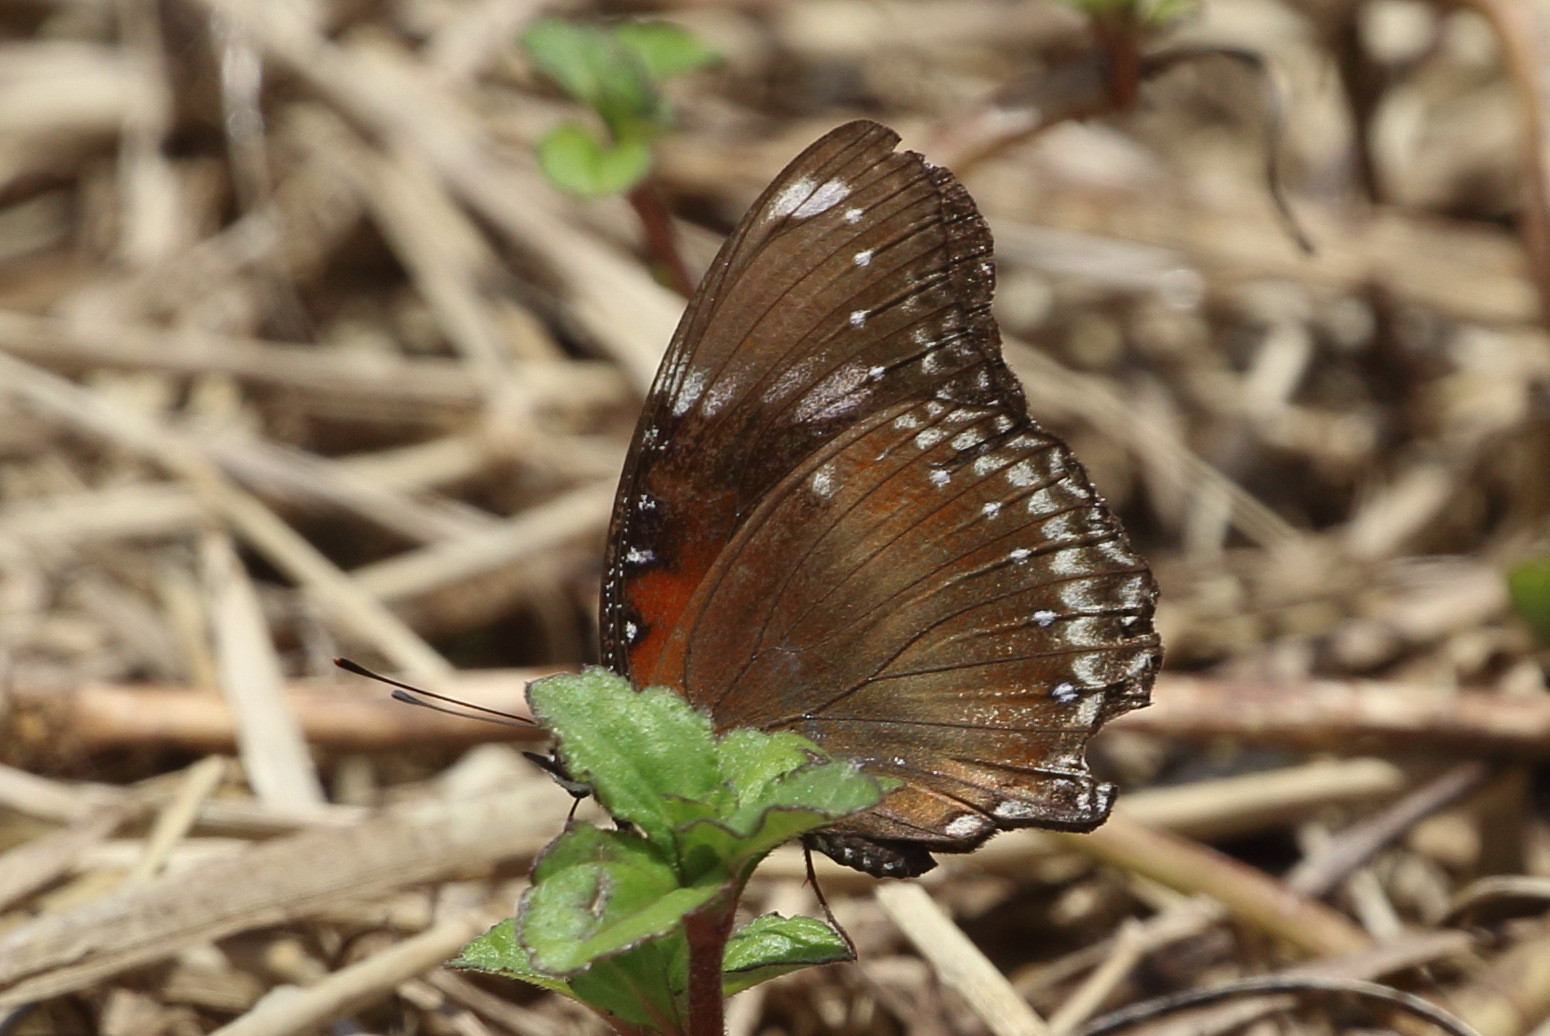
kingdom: Animalia
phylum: Arthropoda
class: Insecta
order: Lepidoptera
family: Nymphalidae
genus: Hypolimnas
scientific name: Hypolimnas bolina
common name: Great eggfly
